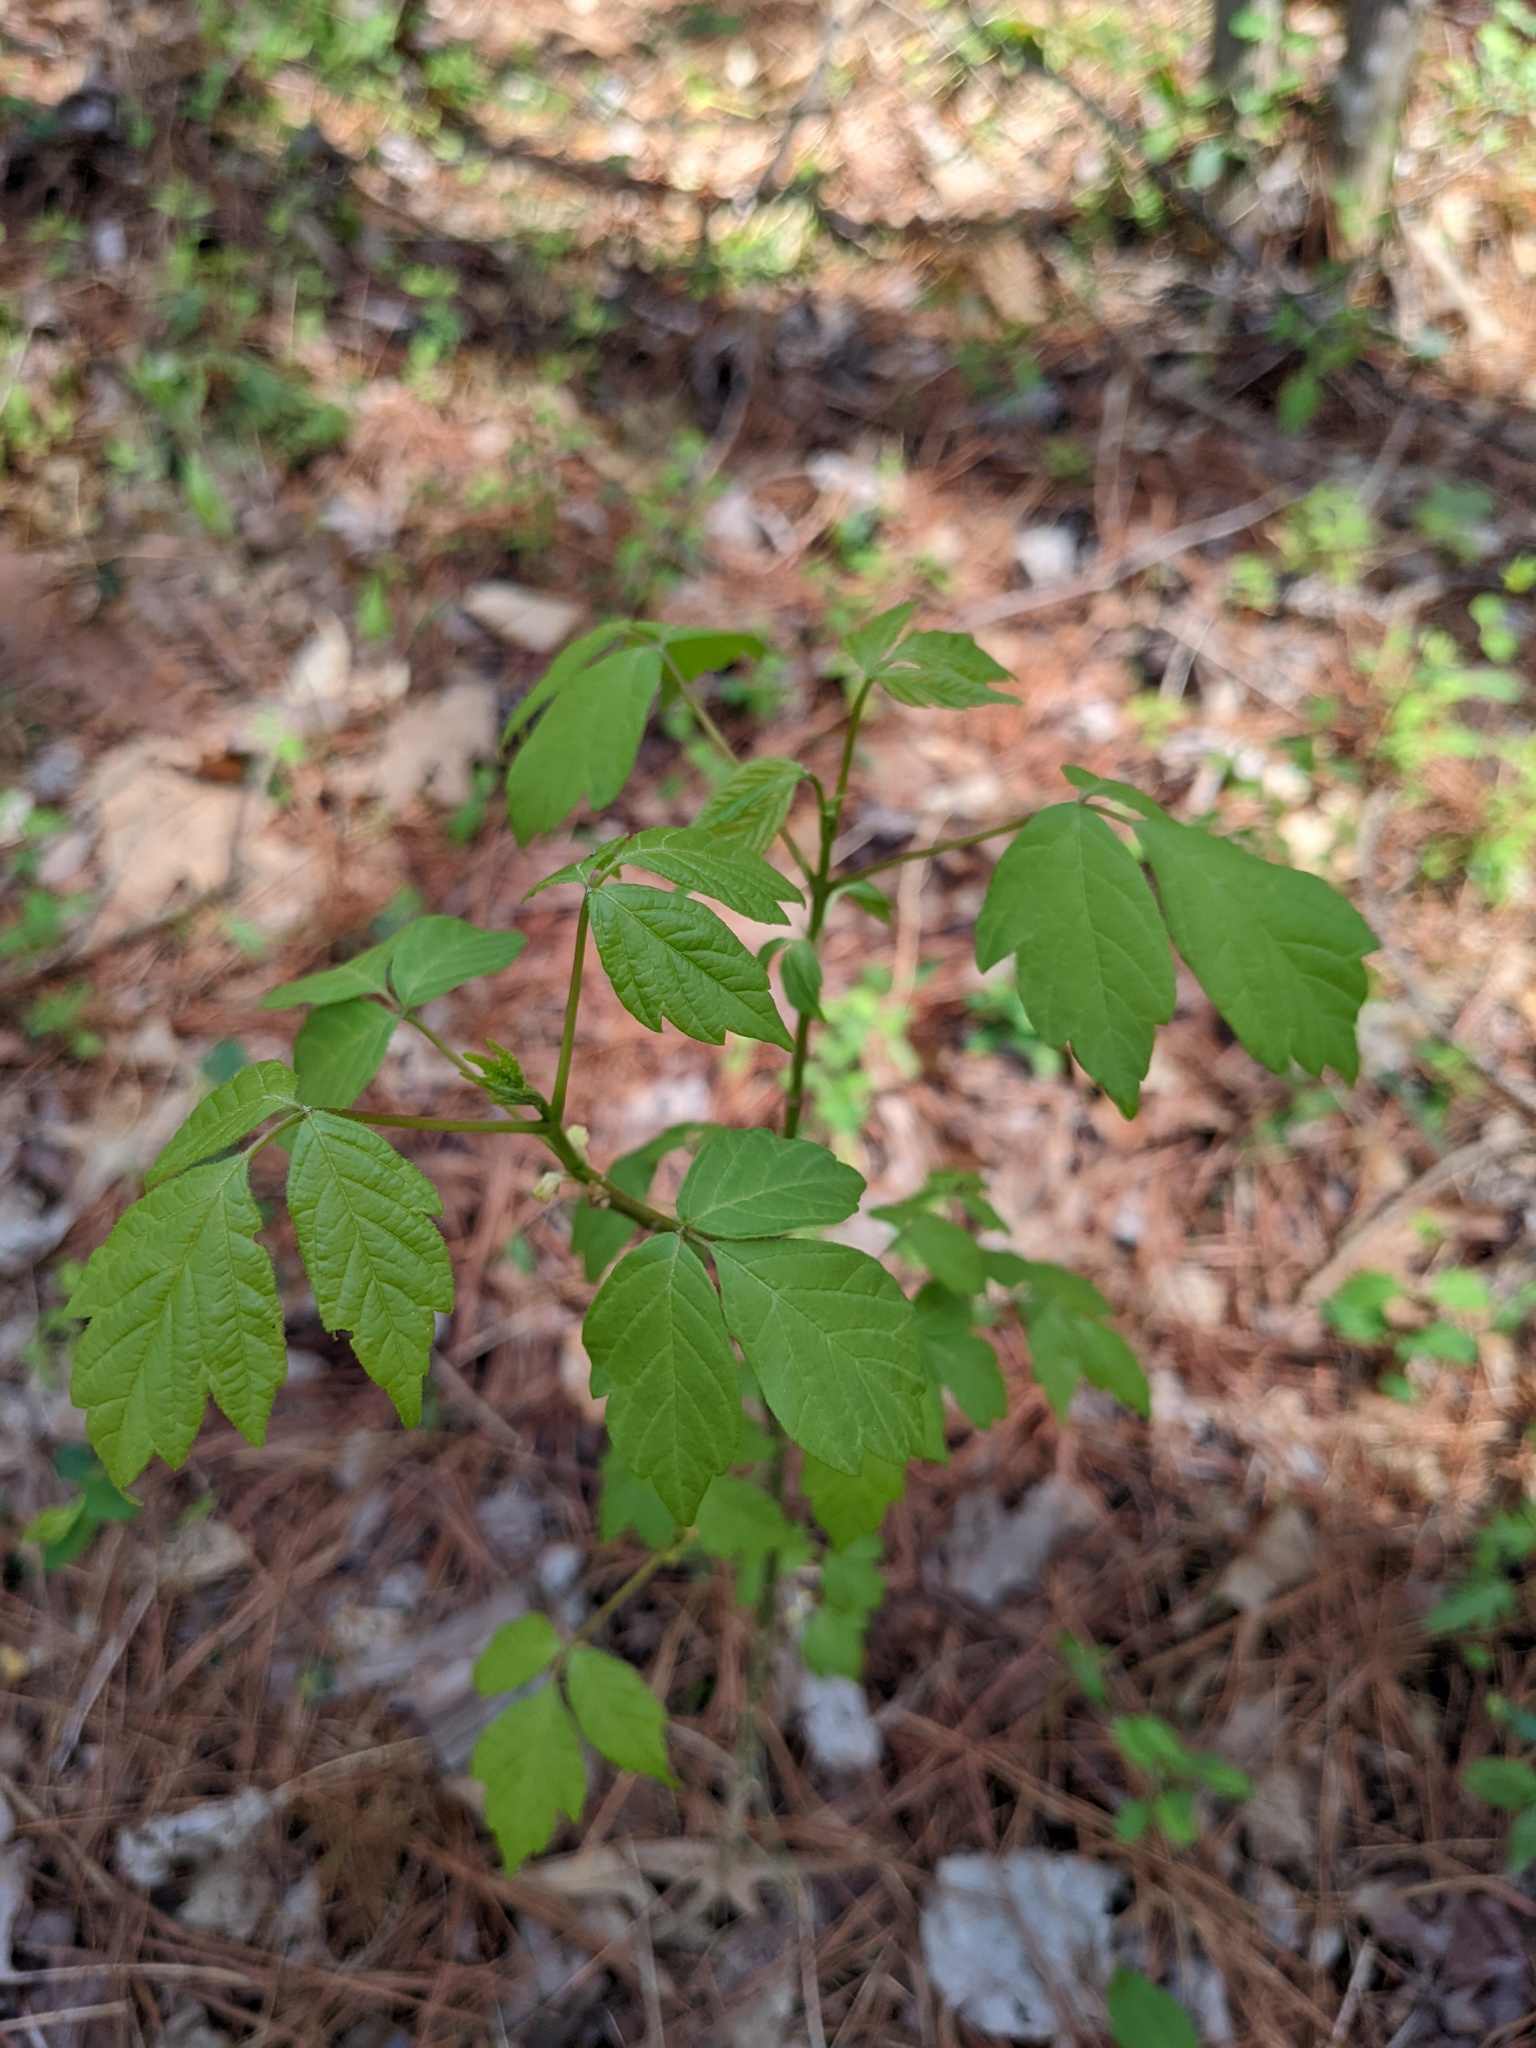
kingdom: Plantae
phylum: Tracheophyta
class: Magnoliopsida
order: Sapindales
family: Sapindaceae
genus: Acer
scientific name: Acer negundo
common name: Ashleaf maple
